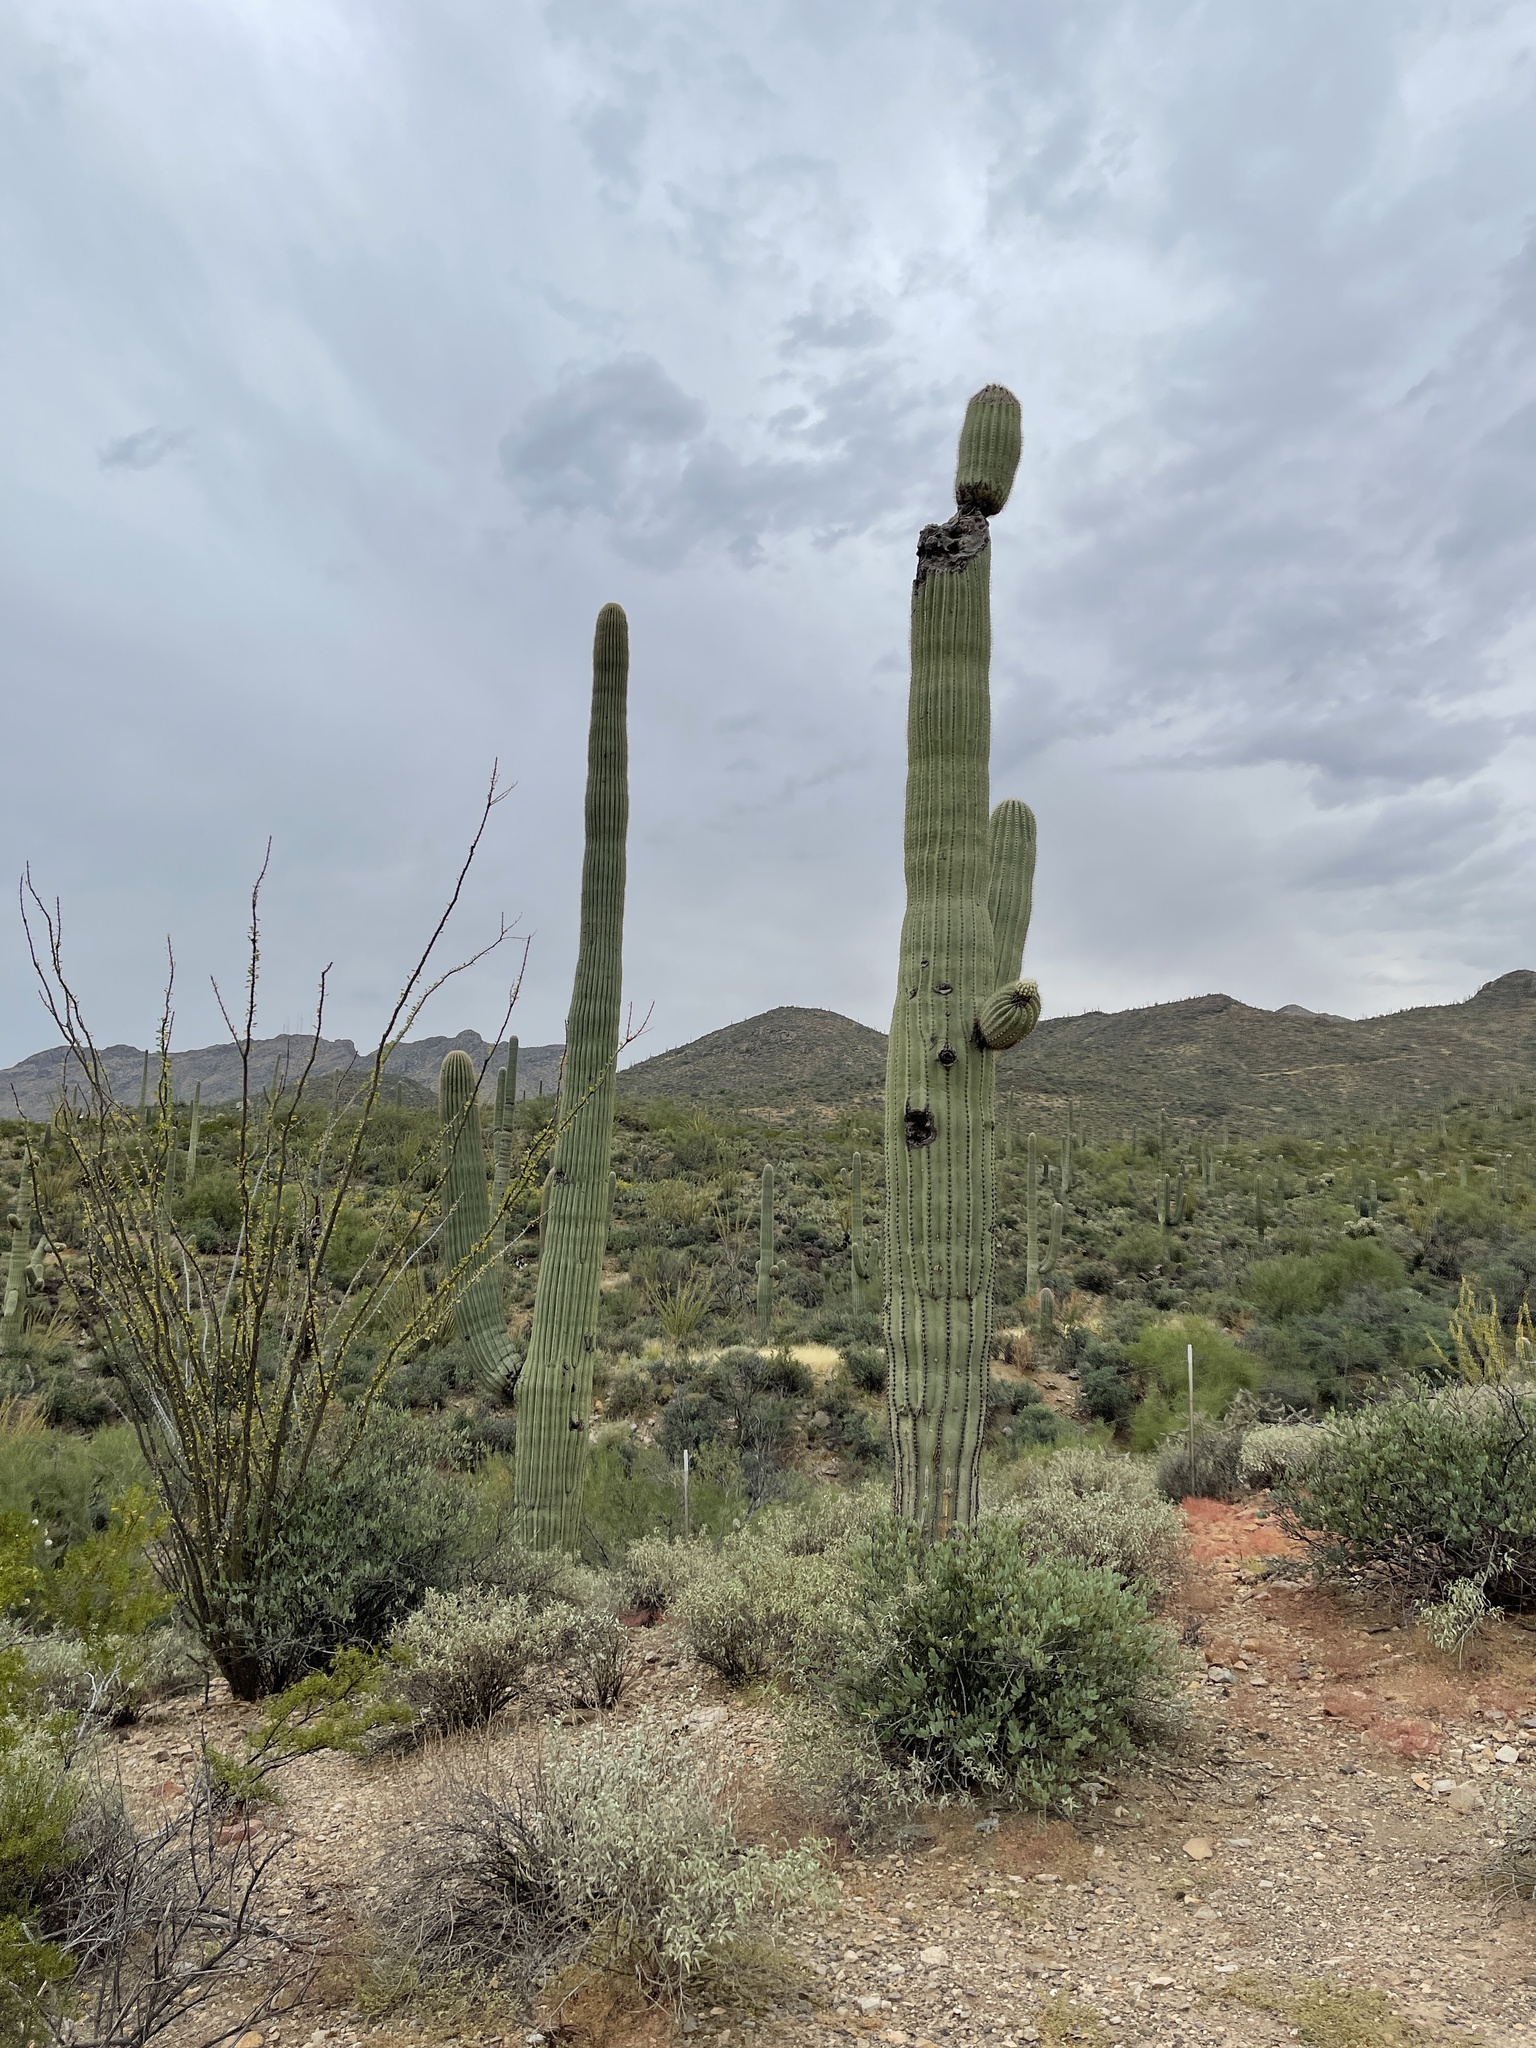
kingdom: Plantae
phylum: Tracheophyta
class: Magnoliopsida
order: Caryophyllales
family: Cactaceae
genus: Carnegiea
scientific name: Carnegiea gigantea
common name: Saguaro
